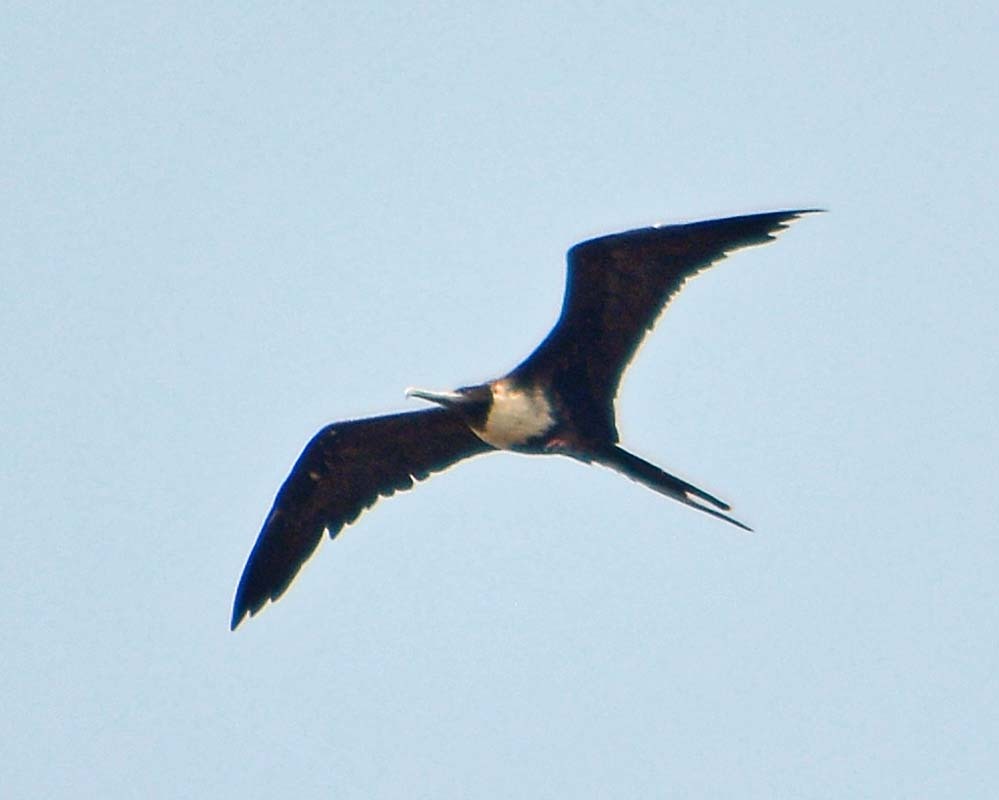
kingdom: Animalia
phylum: Chordata
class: Aves
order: Suliformes
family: Fregatidae
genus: Fregata
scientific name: Fregata magnificens
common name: Magnificent frigatebird
